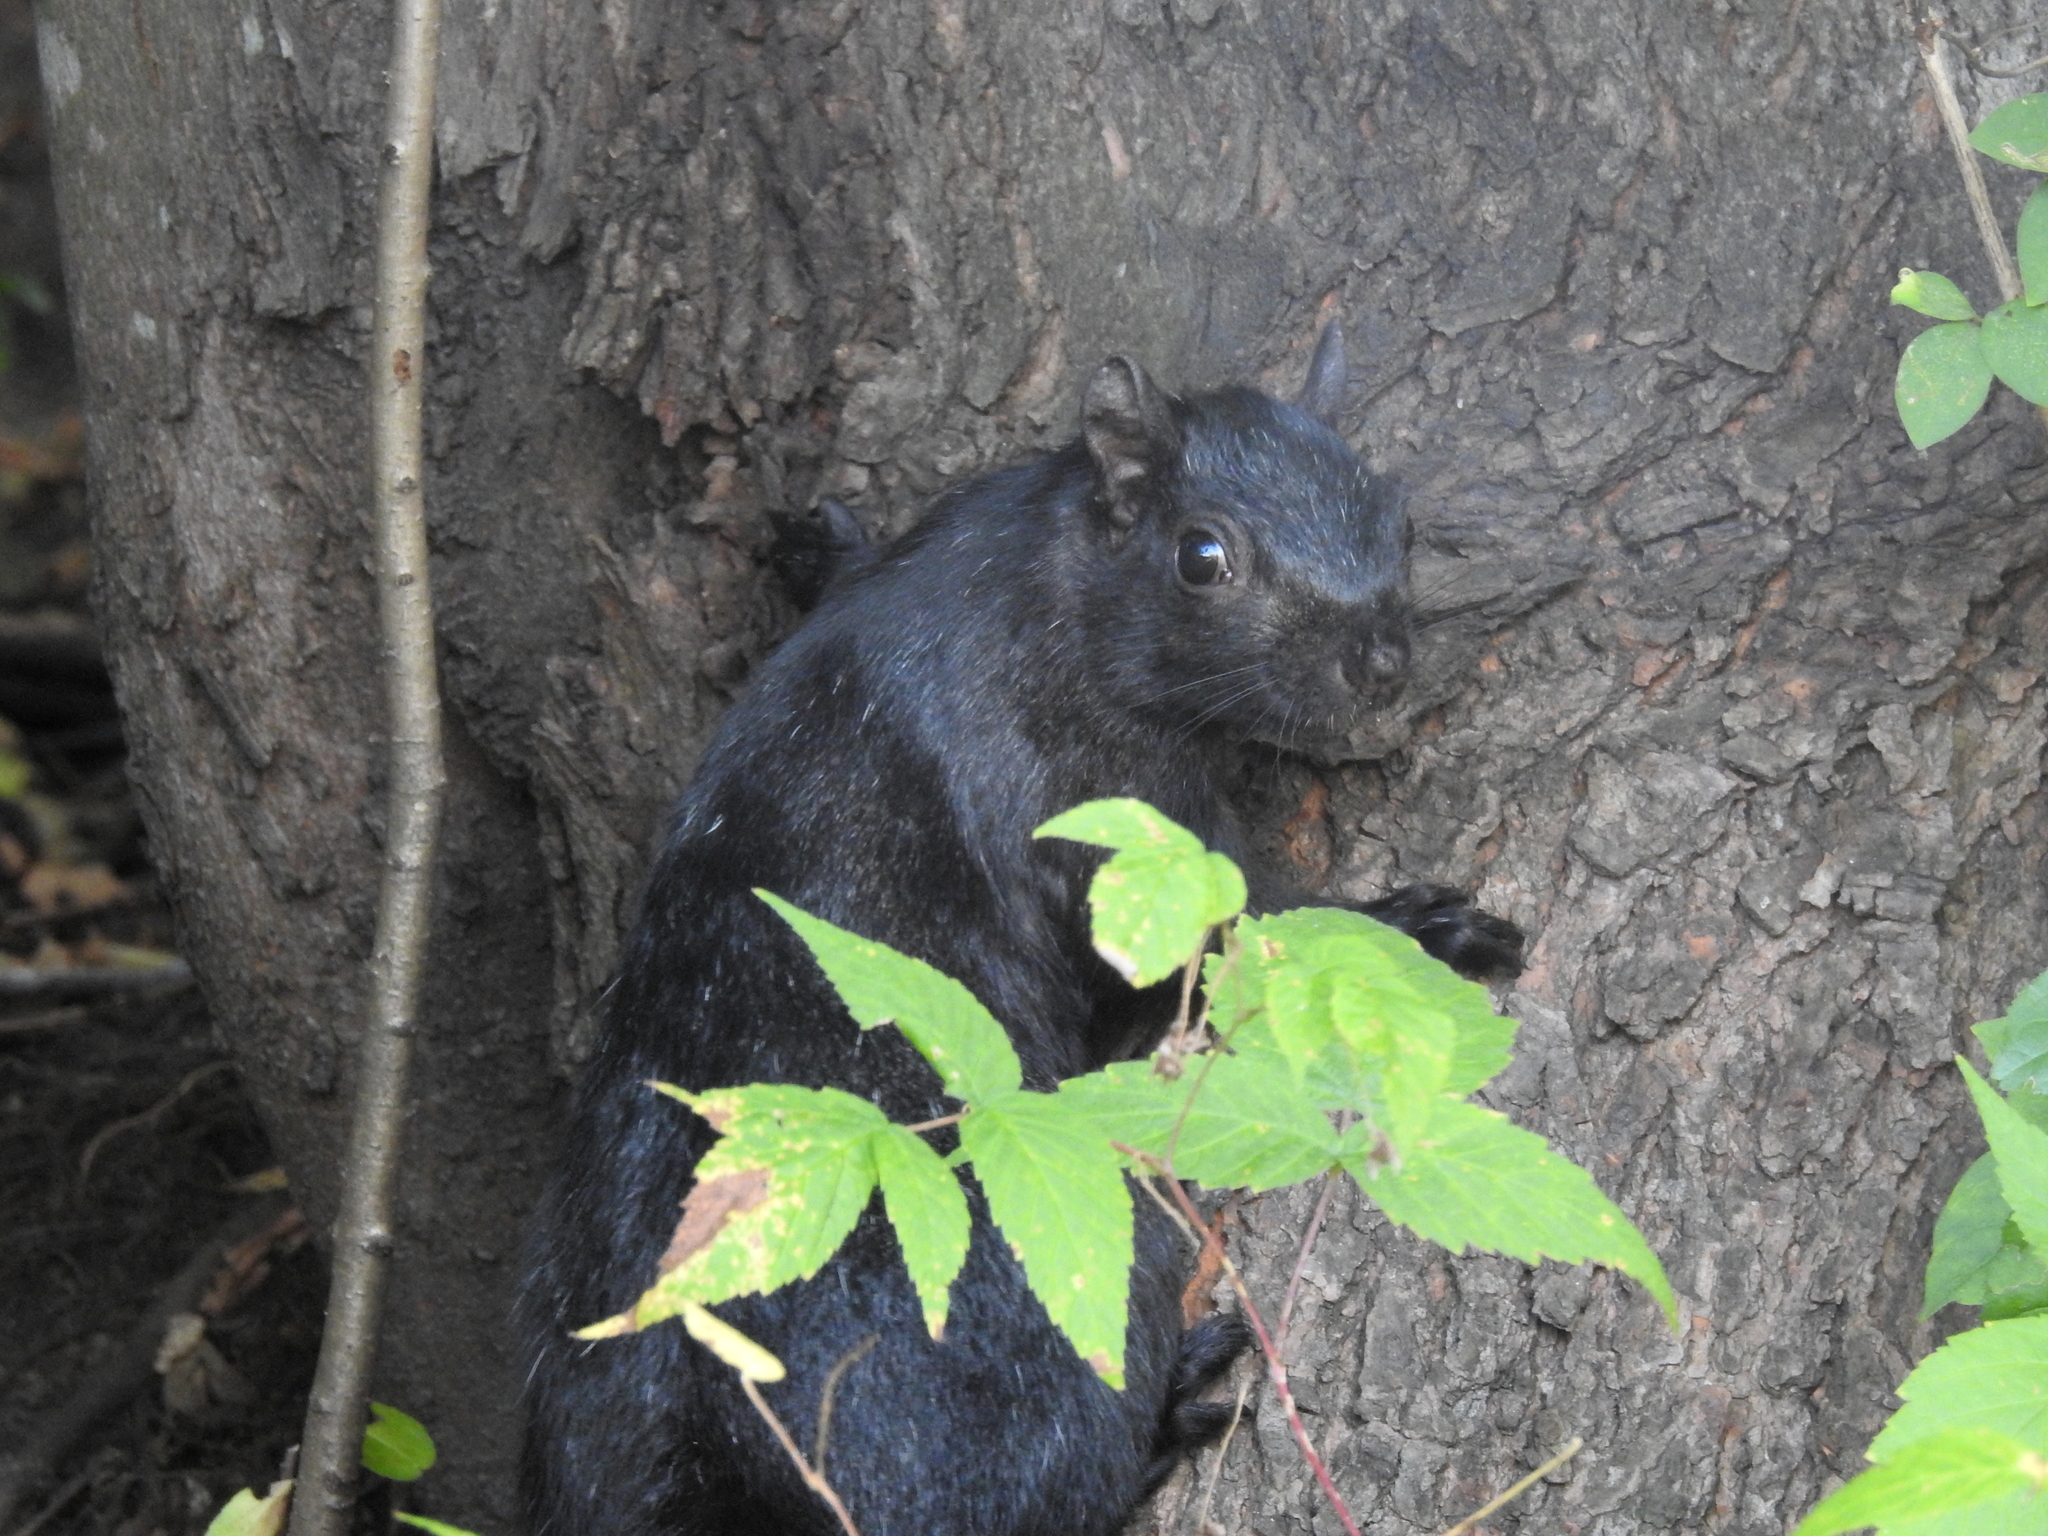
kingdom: Animalia
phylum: Chordata
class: Mammalia
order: Rodentia
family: Sciuridae
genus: Sciurus
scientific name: Sciurus carolinensis
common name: Eastern gray squirrel
